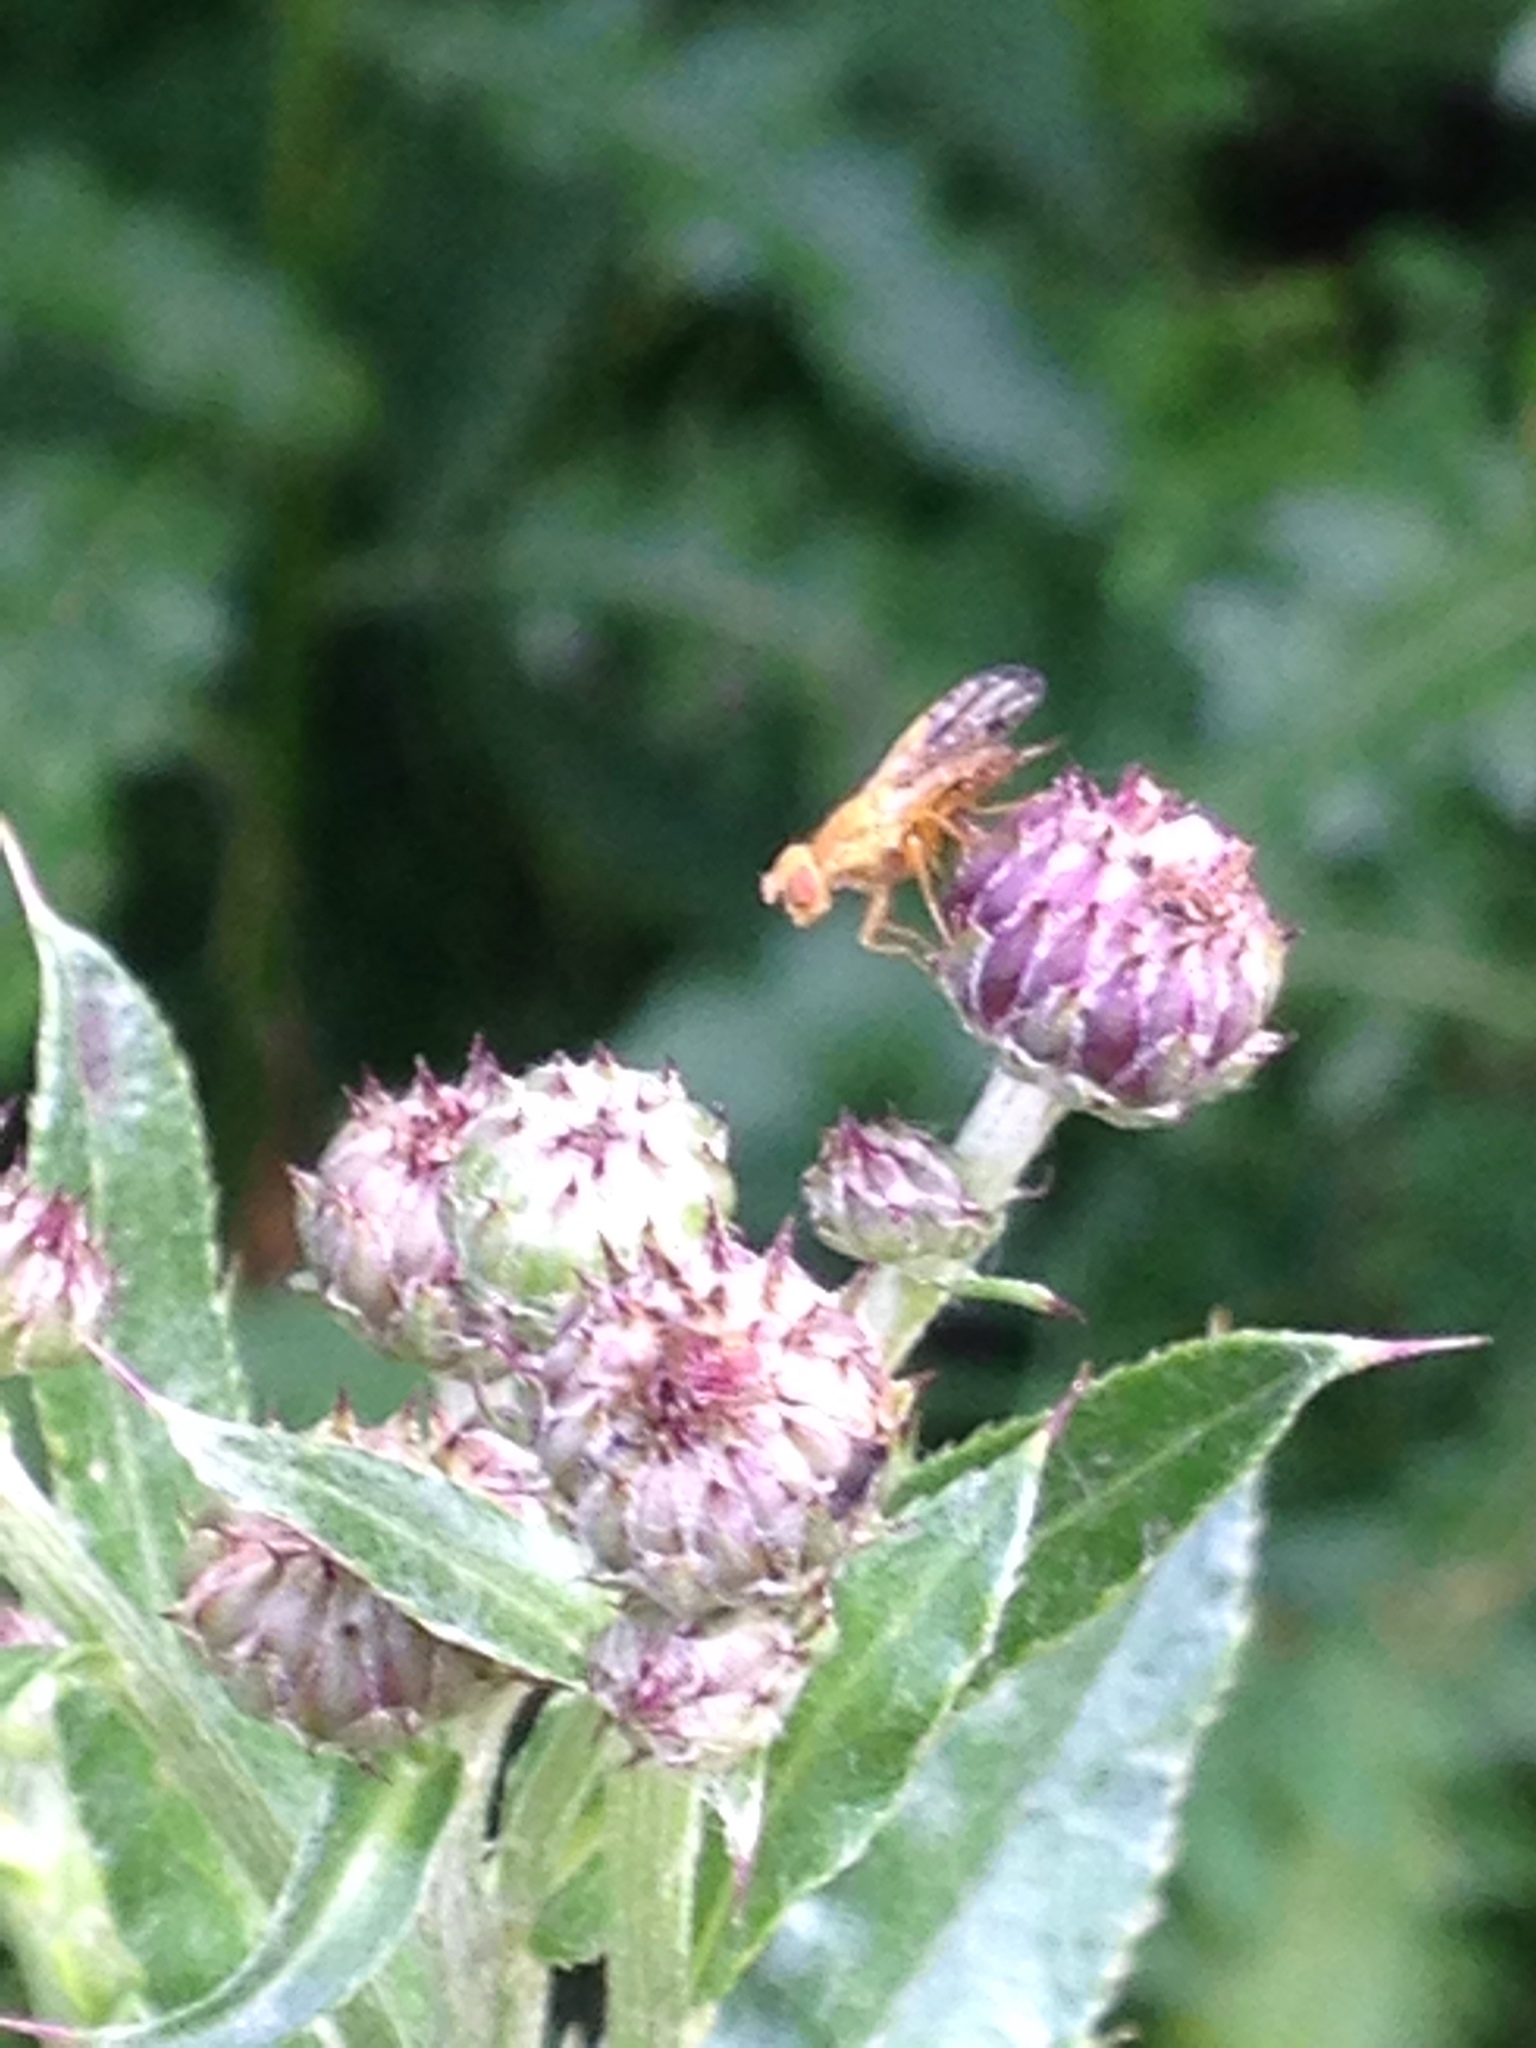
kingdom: Animalia
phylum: Arthropoda
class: Insecta
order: Diptera
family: Tephritidae
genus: Xyphosia
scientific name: Xyphosia miliaria
